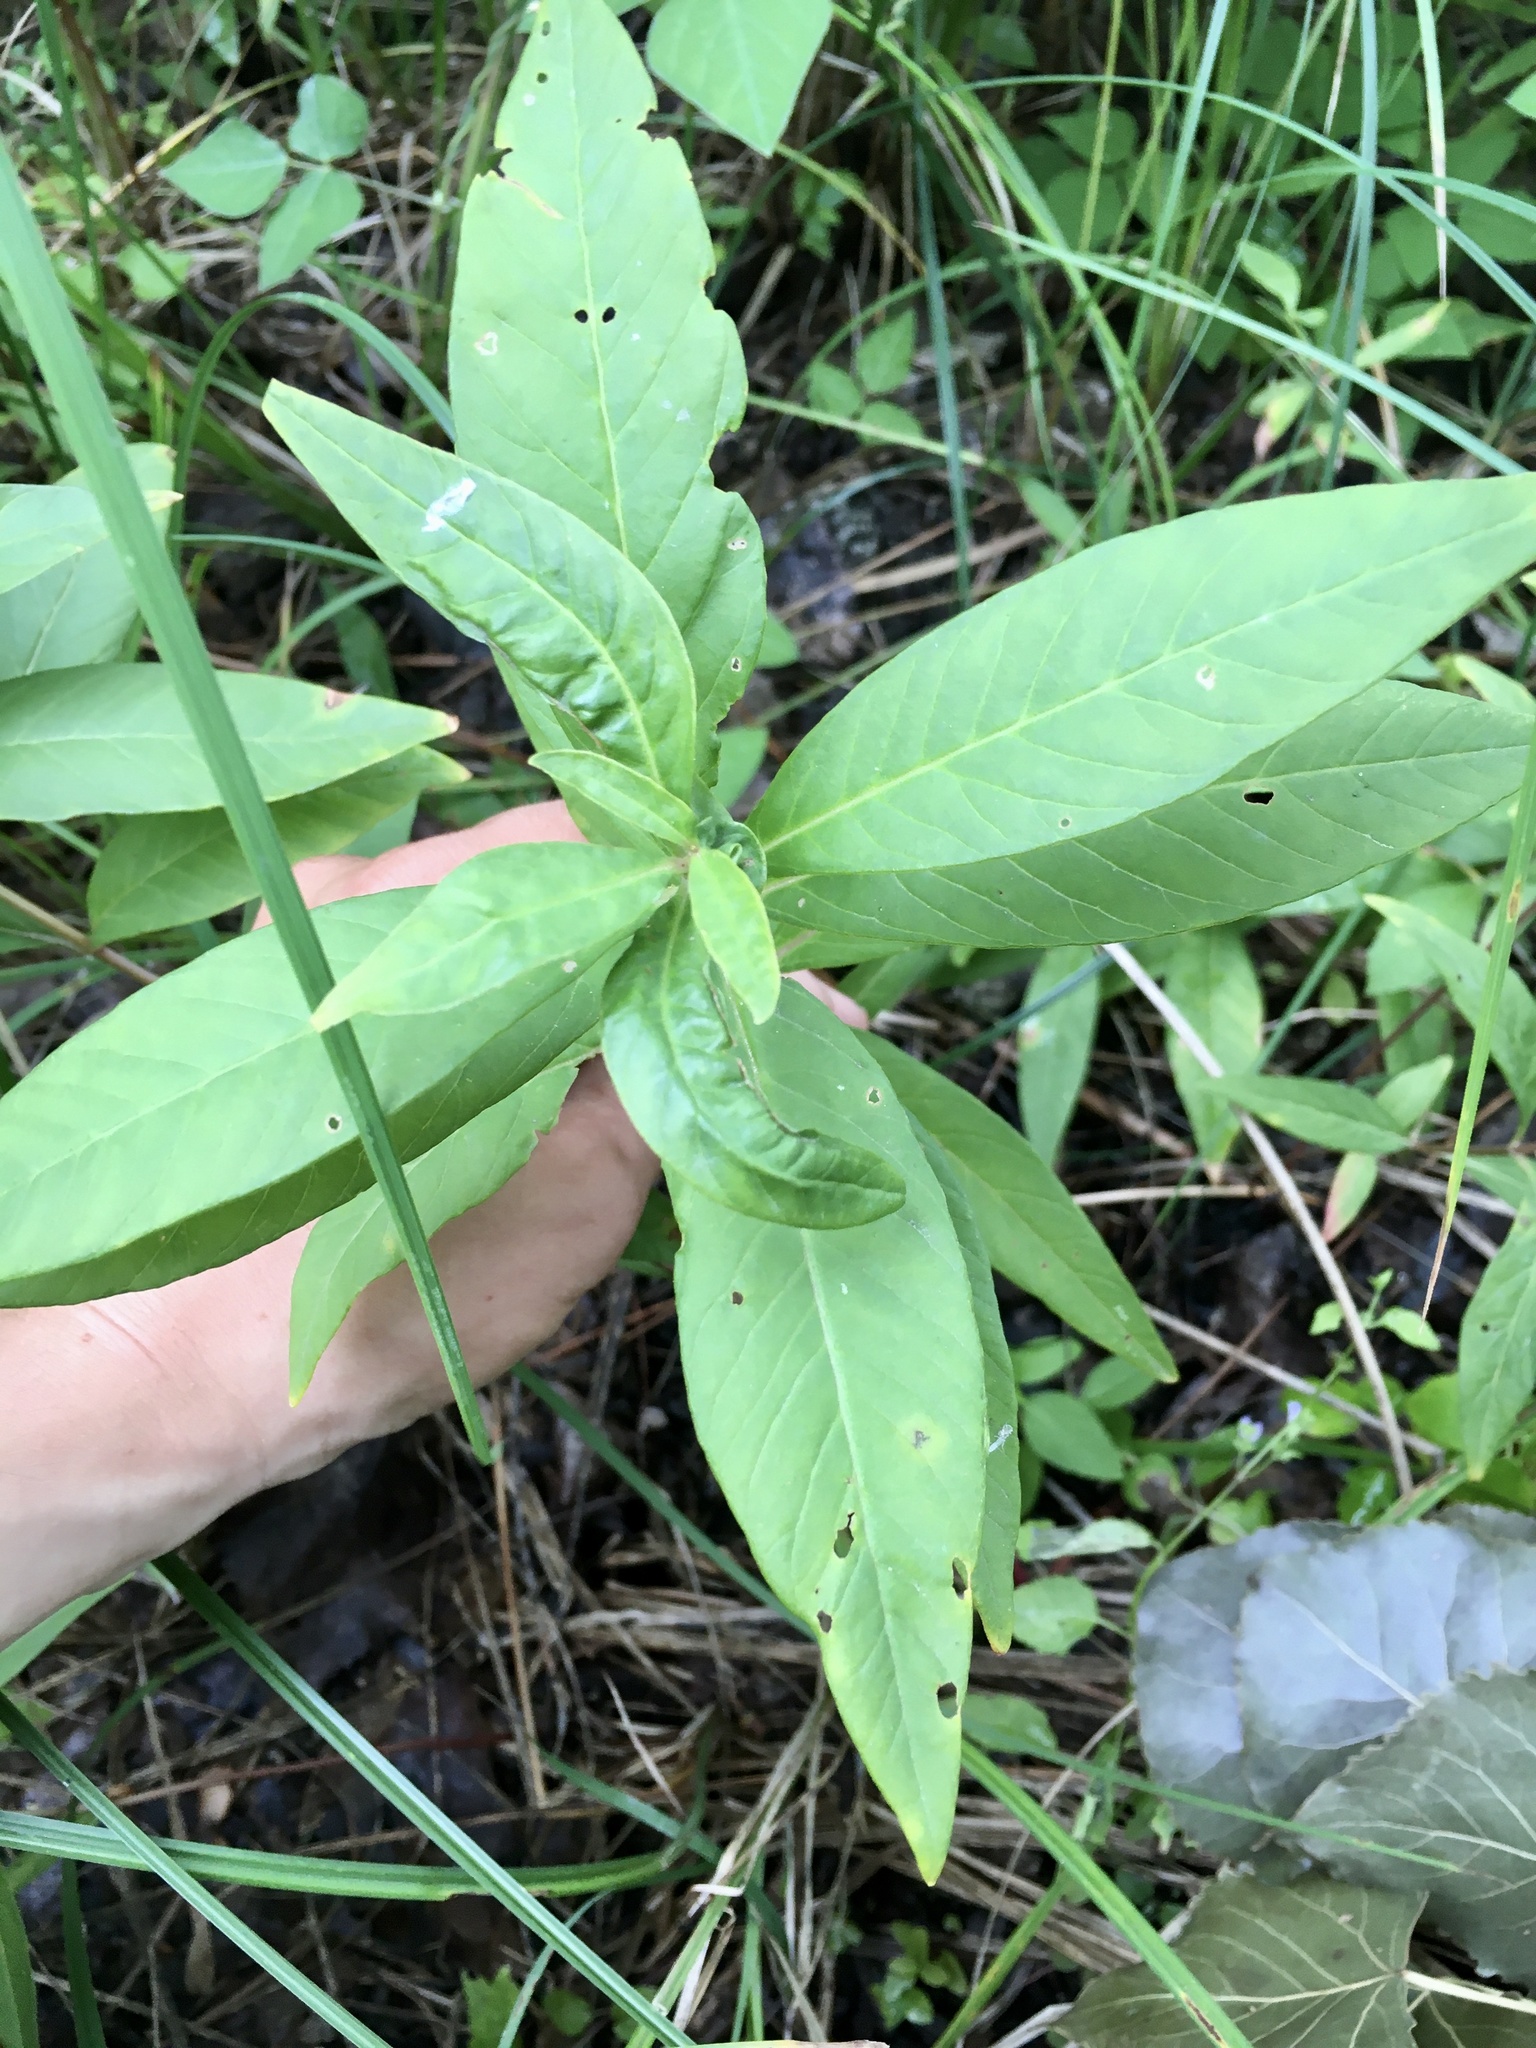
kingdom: Plantae
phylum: Tracheophyta
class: Magnoliopsida
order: Ericales
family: Primulaceae
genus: Lysimachia
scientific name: Lysimachia thyrsiflora
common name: Tufted loosestrife
